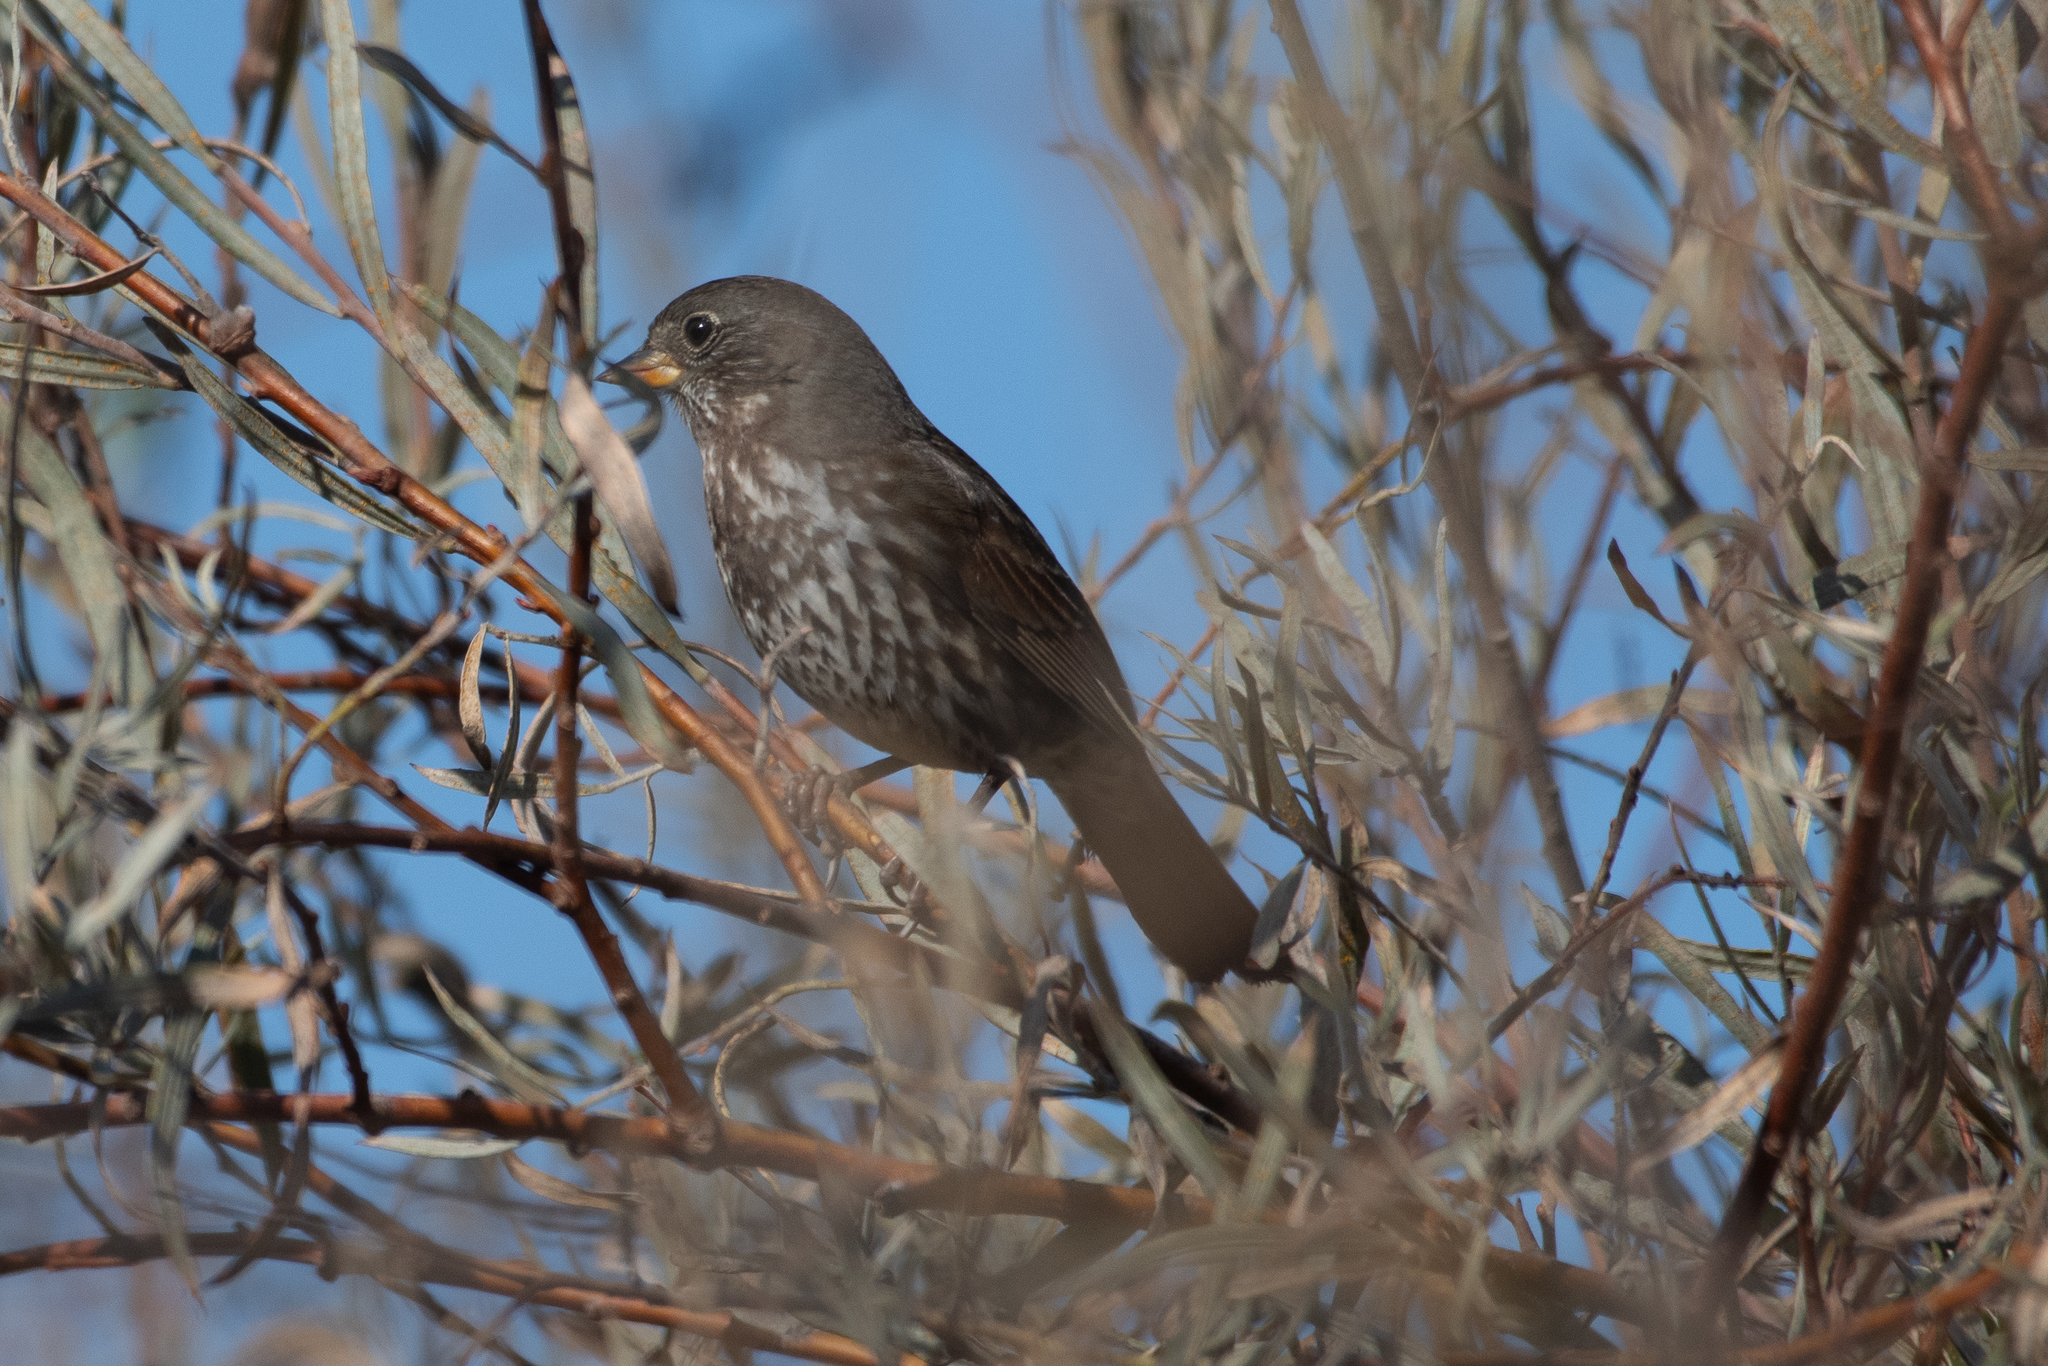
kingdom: Animalia
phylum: Chordata
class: Aves
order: Passeriformes
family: Passerellidae
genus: Passerella
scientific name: Passerella iliaca
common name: Fox sparrow
